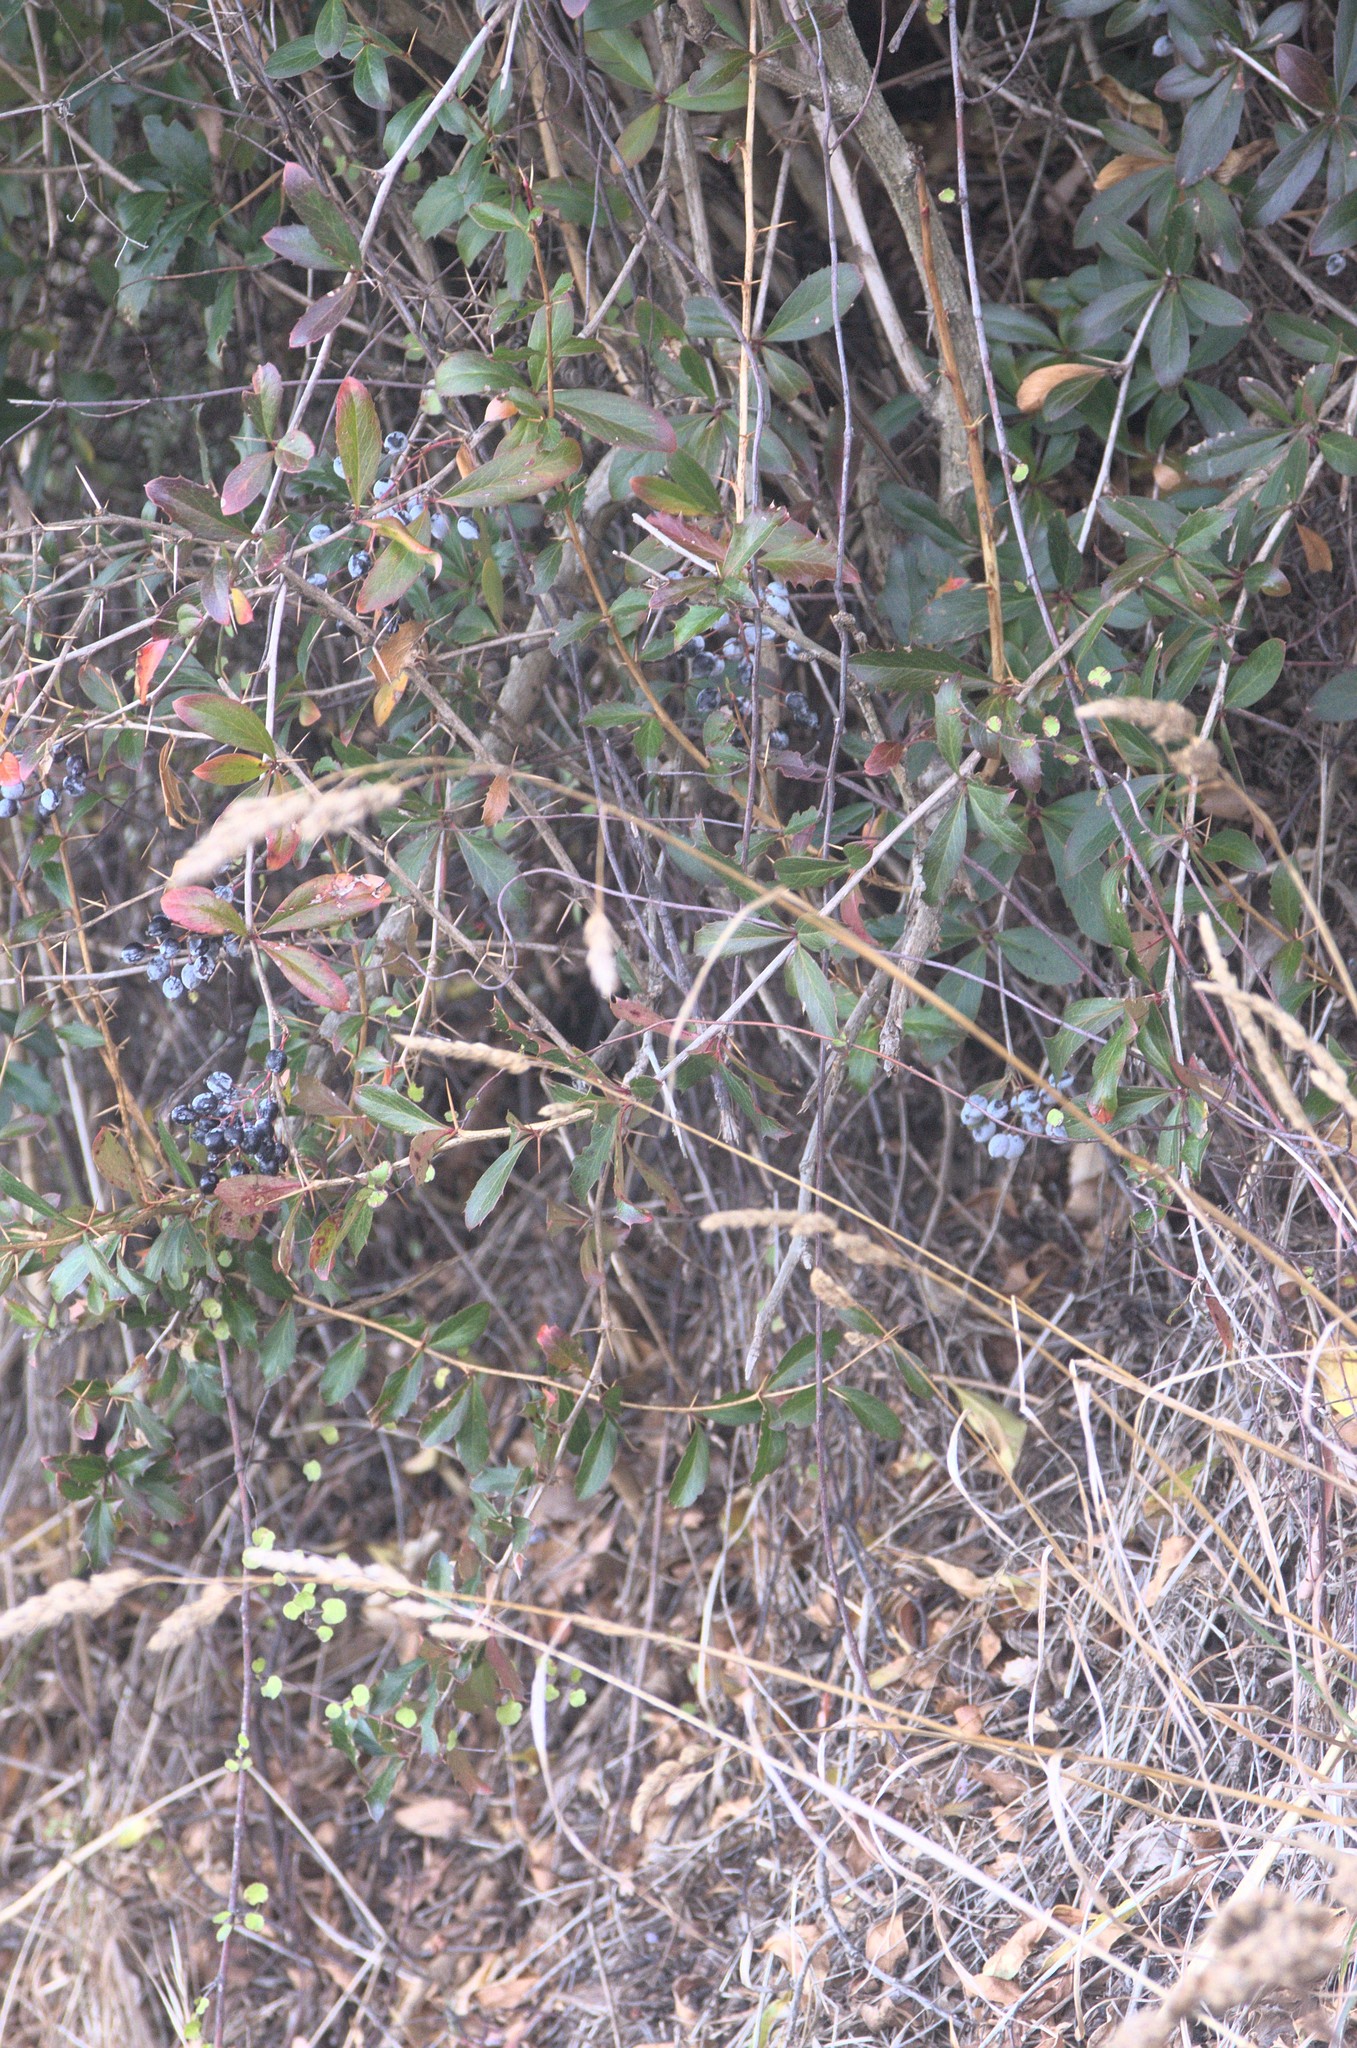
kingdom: Plantae
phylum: Tracheophyta
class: Magnoliopsida
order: Ranunculales
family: Berberidaceae
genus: Berberis
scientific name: Berberis glaucocarpa
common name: Great barberry
